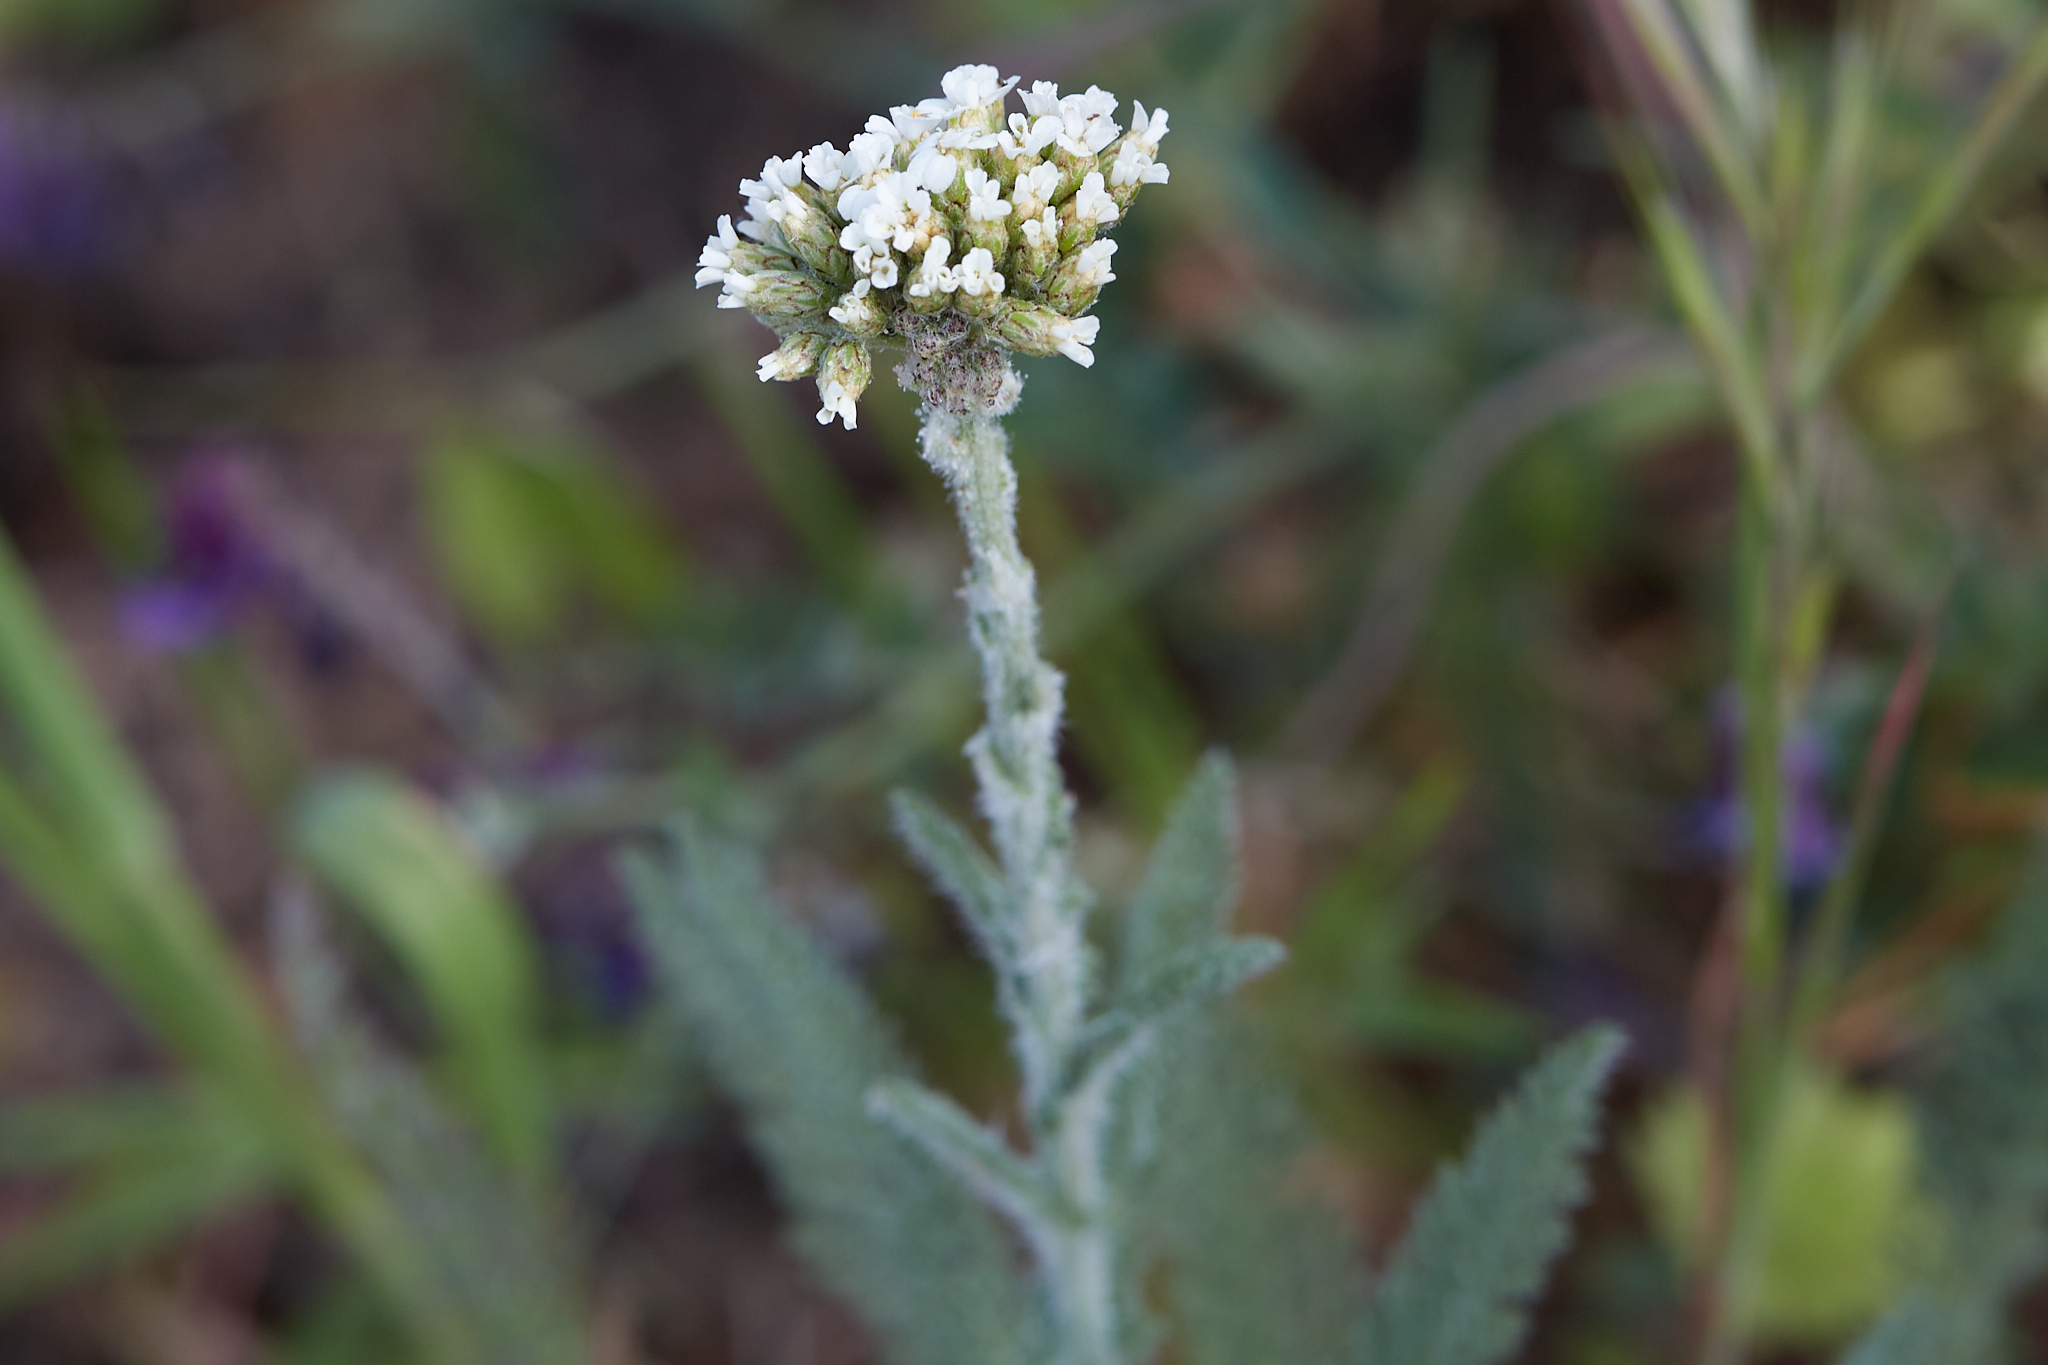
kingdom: Plantae
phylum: Tracheophyta
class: Magnoliopsida
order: Asterales
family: Asteraceae
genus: Achillea
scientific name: Achillea millefolium
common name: Yarrow
